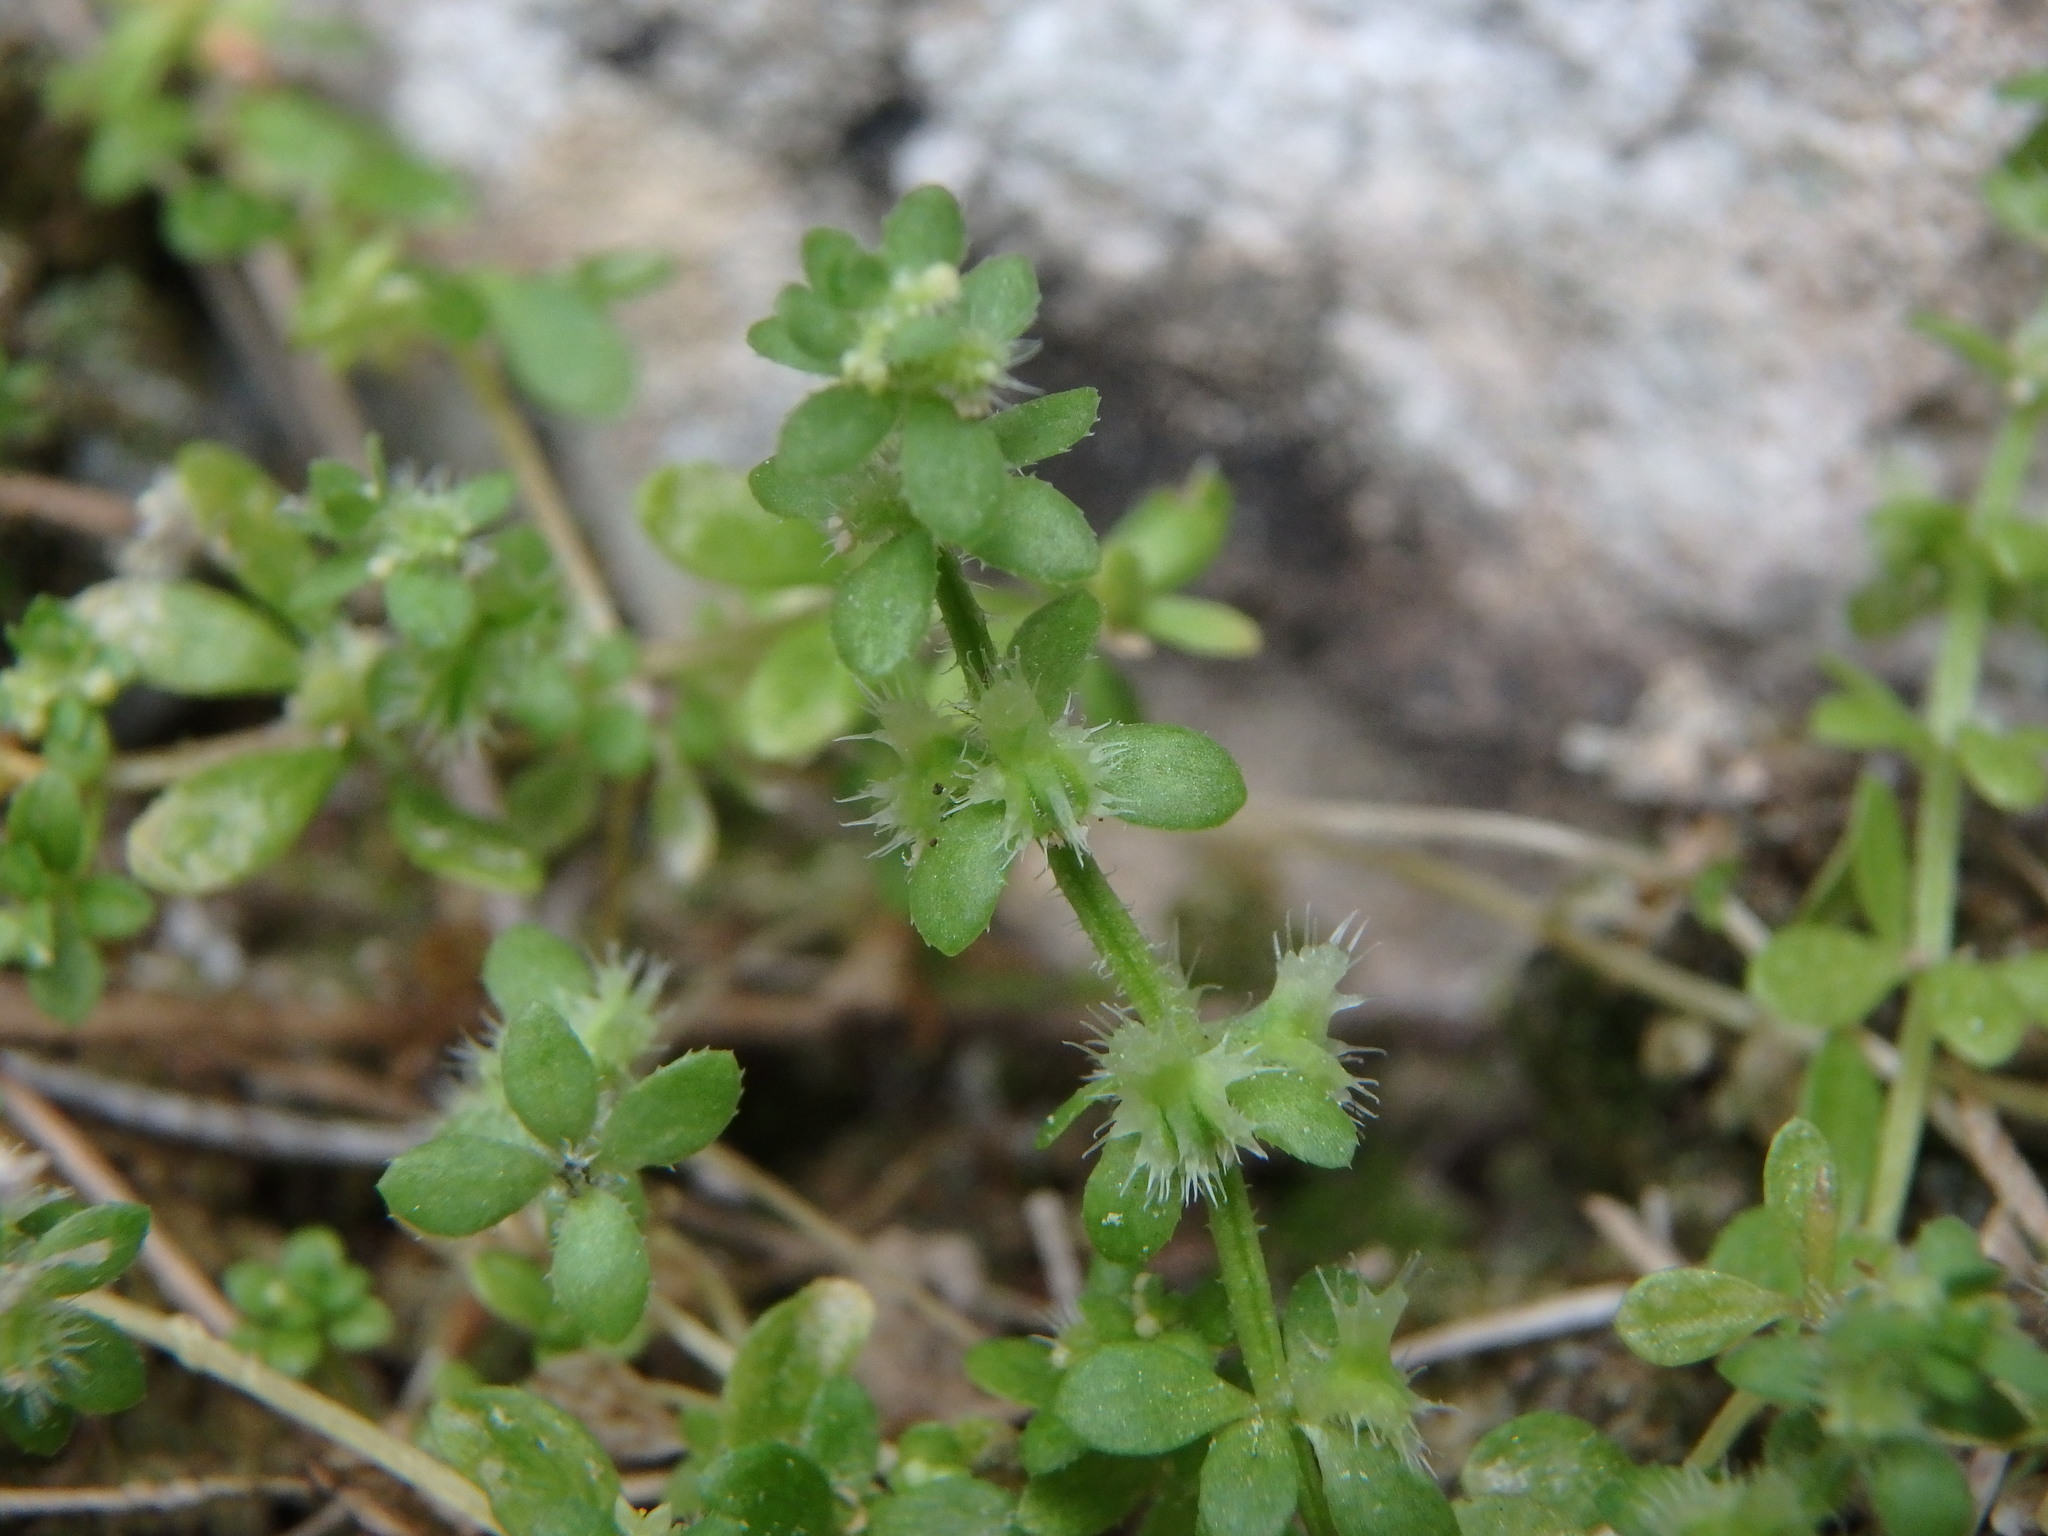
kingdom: Plantae
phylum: Tracheophyta
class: Magnoliopsida
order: Gentianales
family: Rubiaceae
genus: Valantia
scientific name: Valantia muralis
